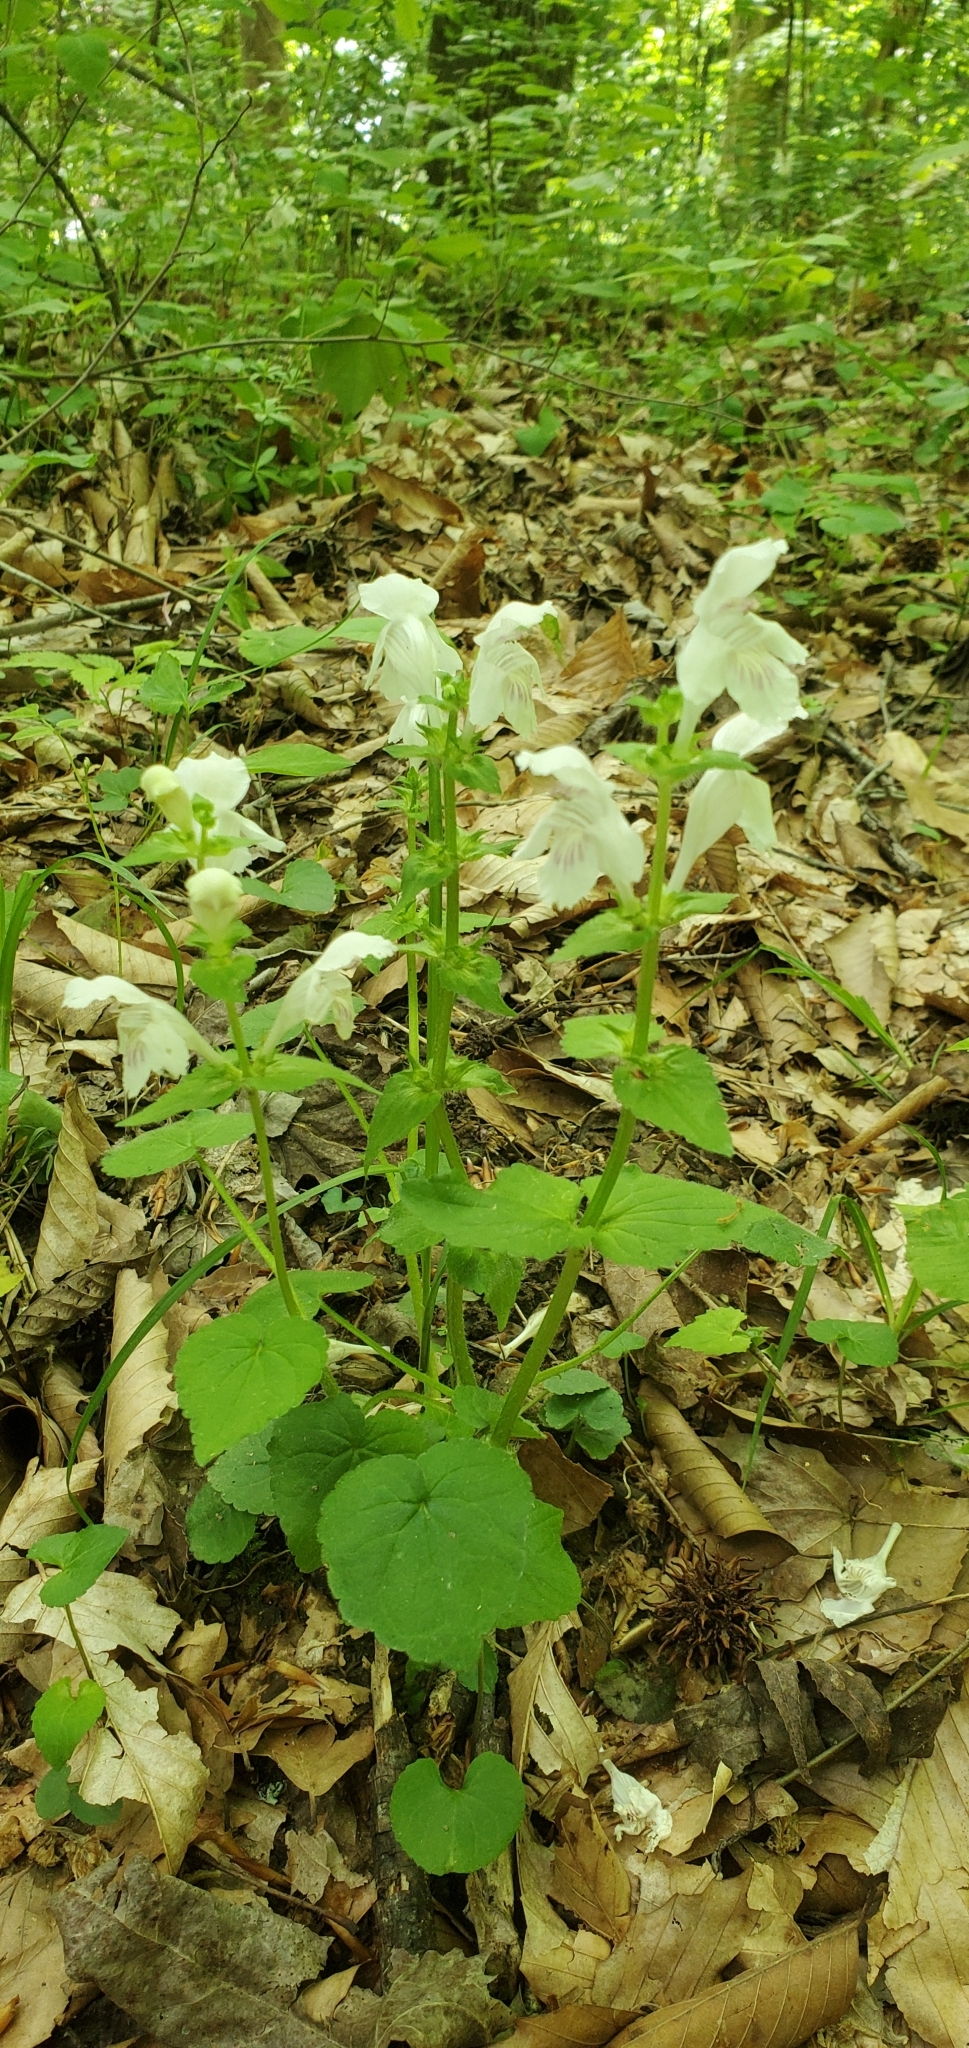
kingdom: Plantae
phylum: Tracheophyta
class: Magnoliopsida
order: Lamiales
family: Lamiaceae
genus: Synandra
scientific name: Synandra hispidula
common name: Synandra
